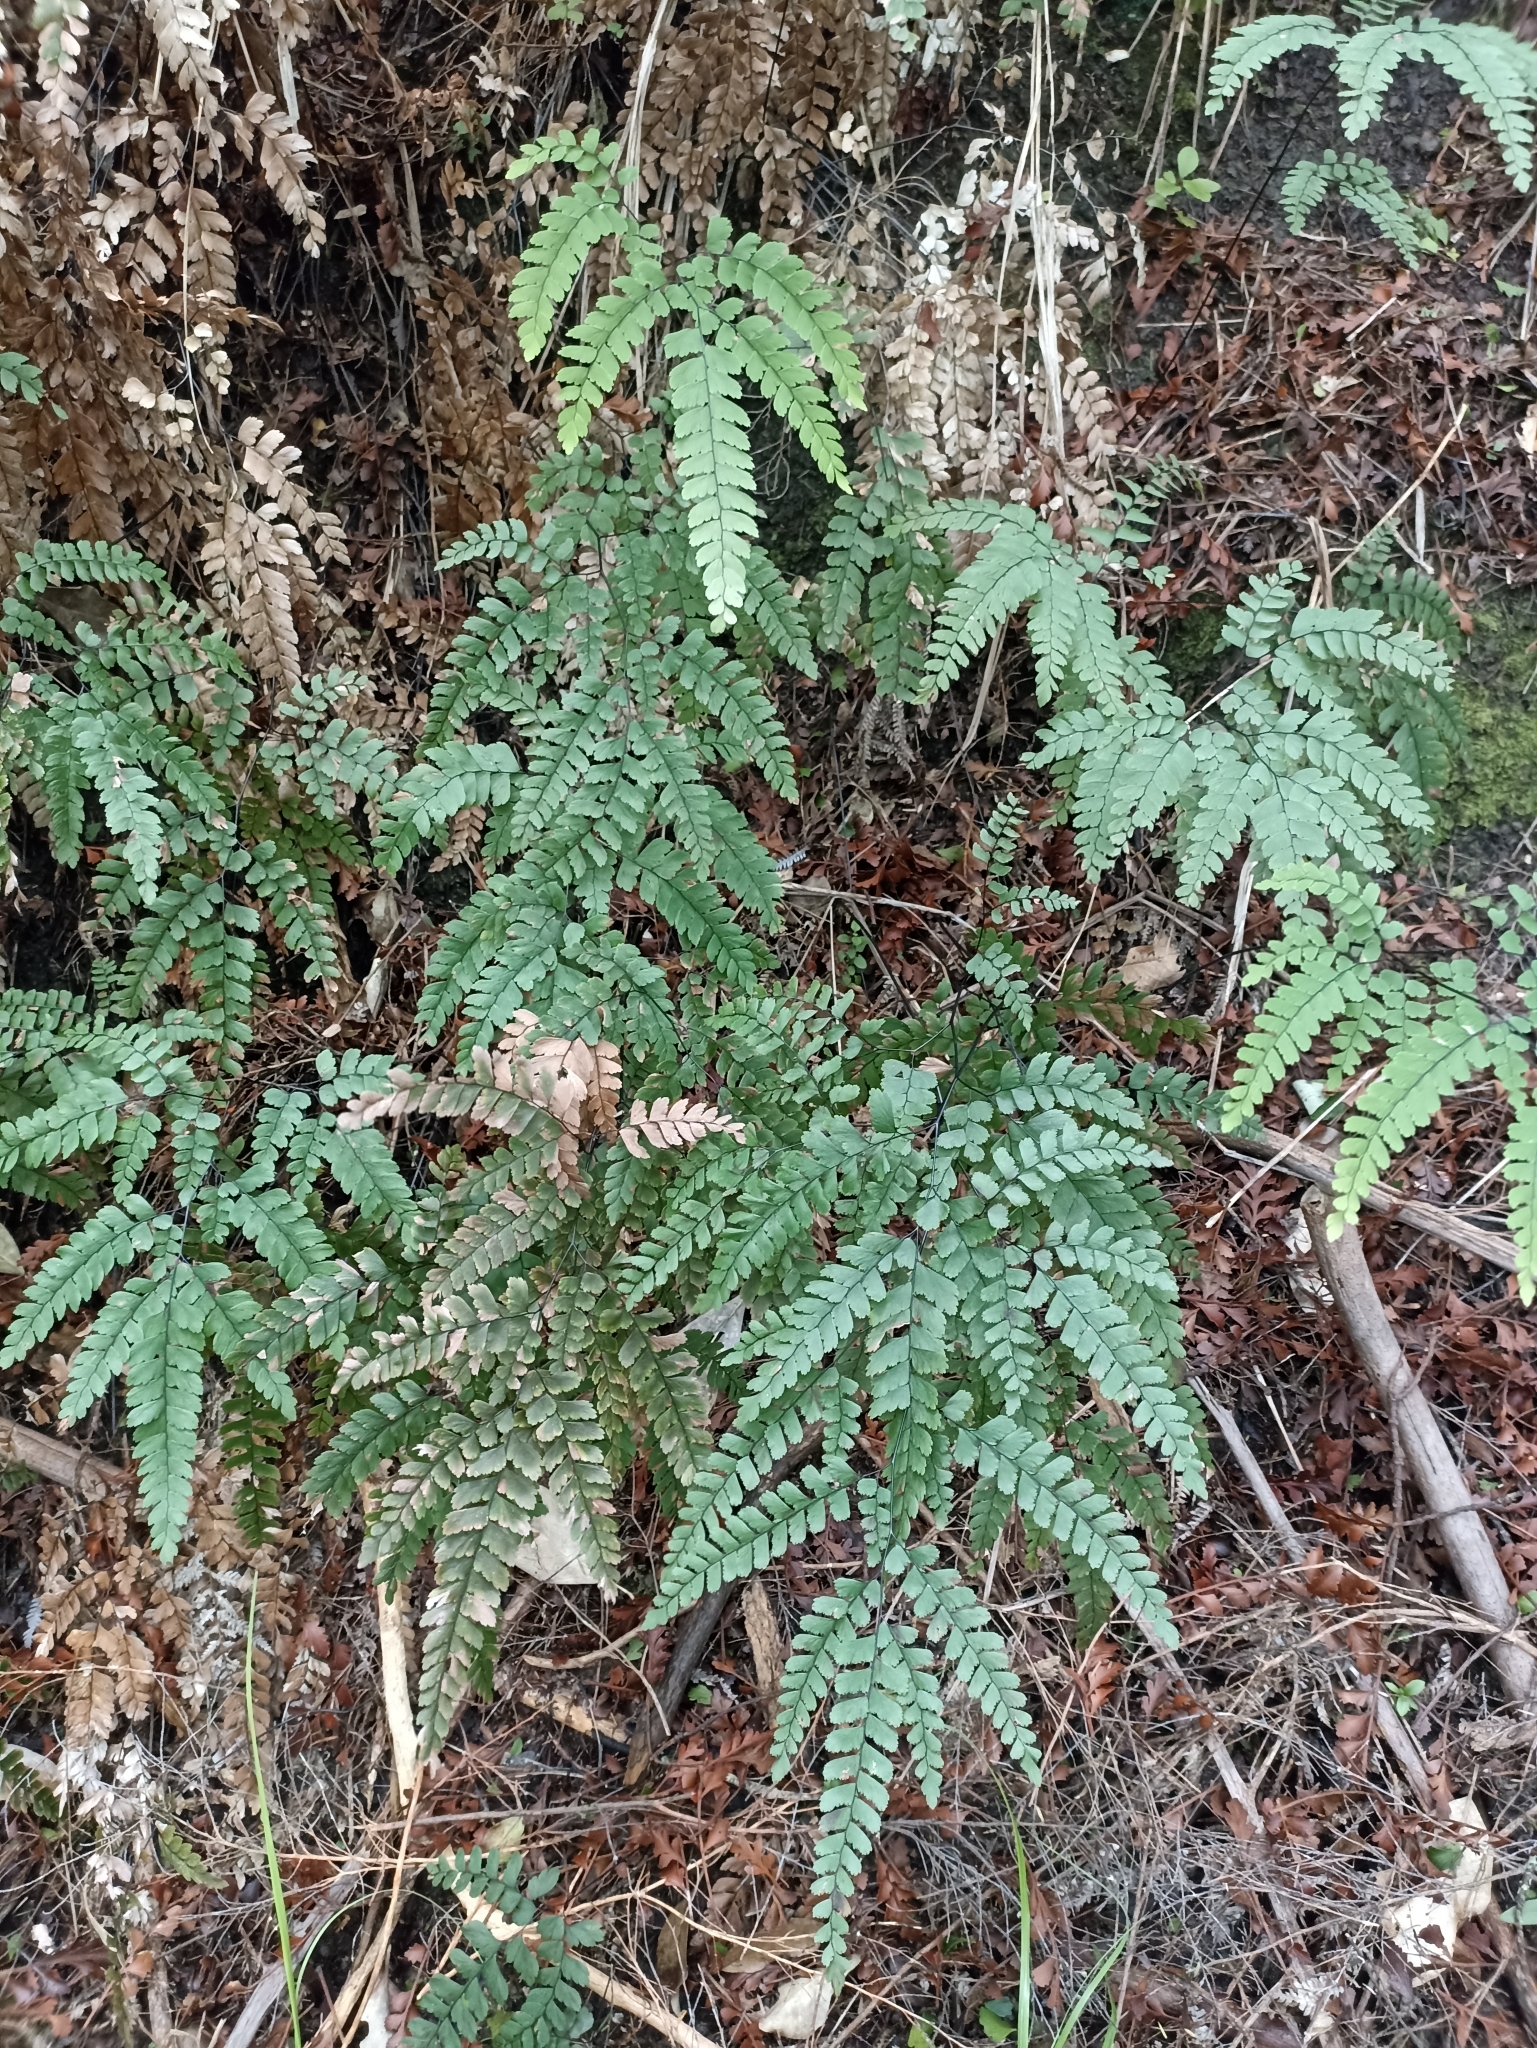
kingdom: Plantae
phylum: Tracheophyta
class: Polypodiopsida
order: Polypodiales
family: Pteridaceae
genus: Adiantum
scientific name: Adiantum cunninghamii
